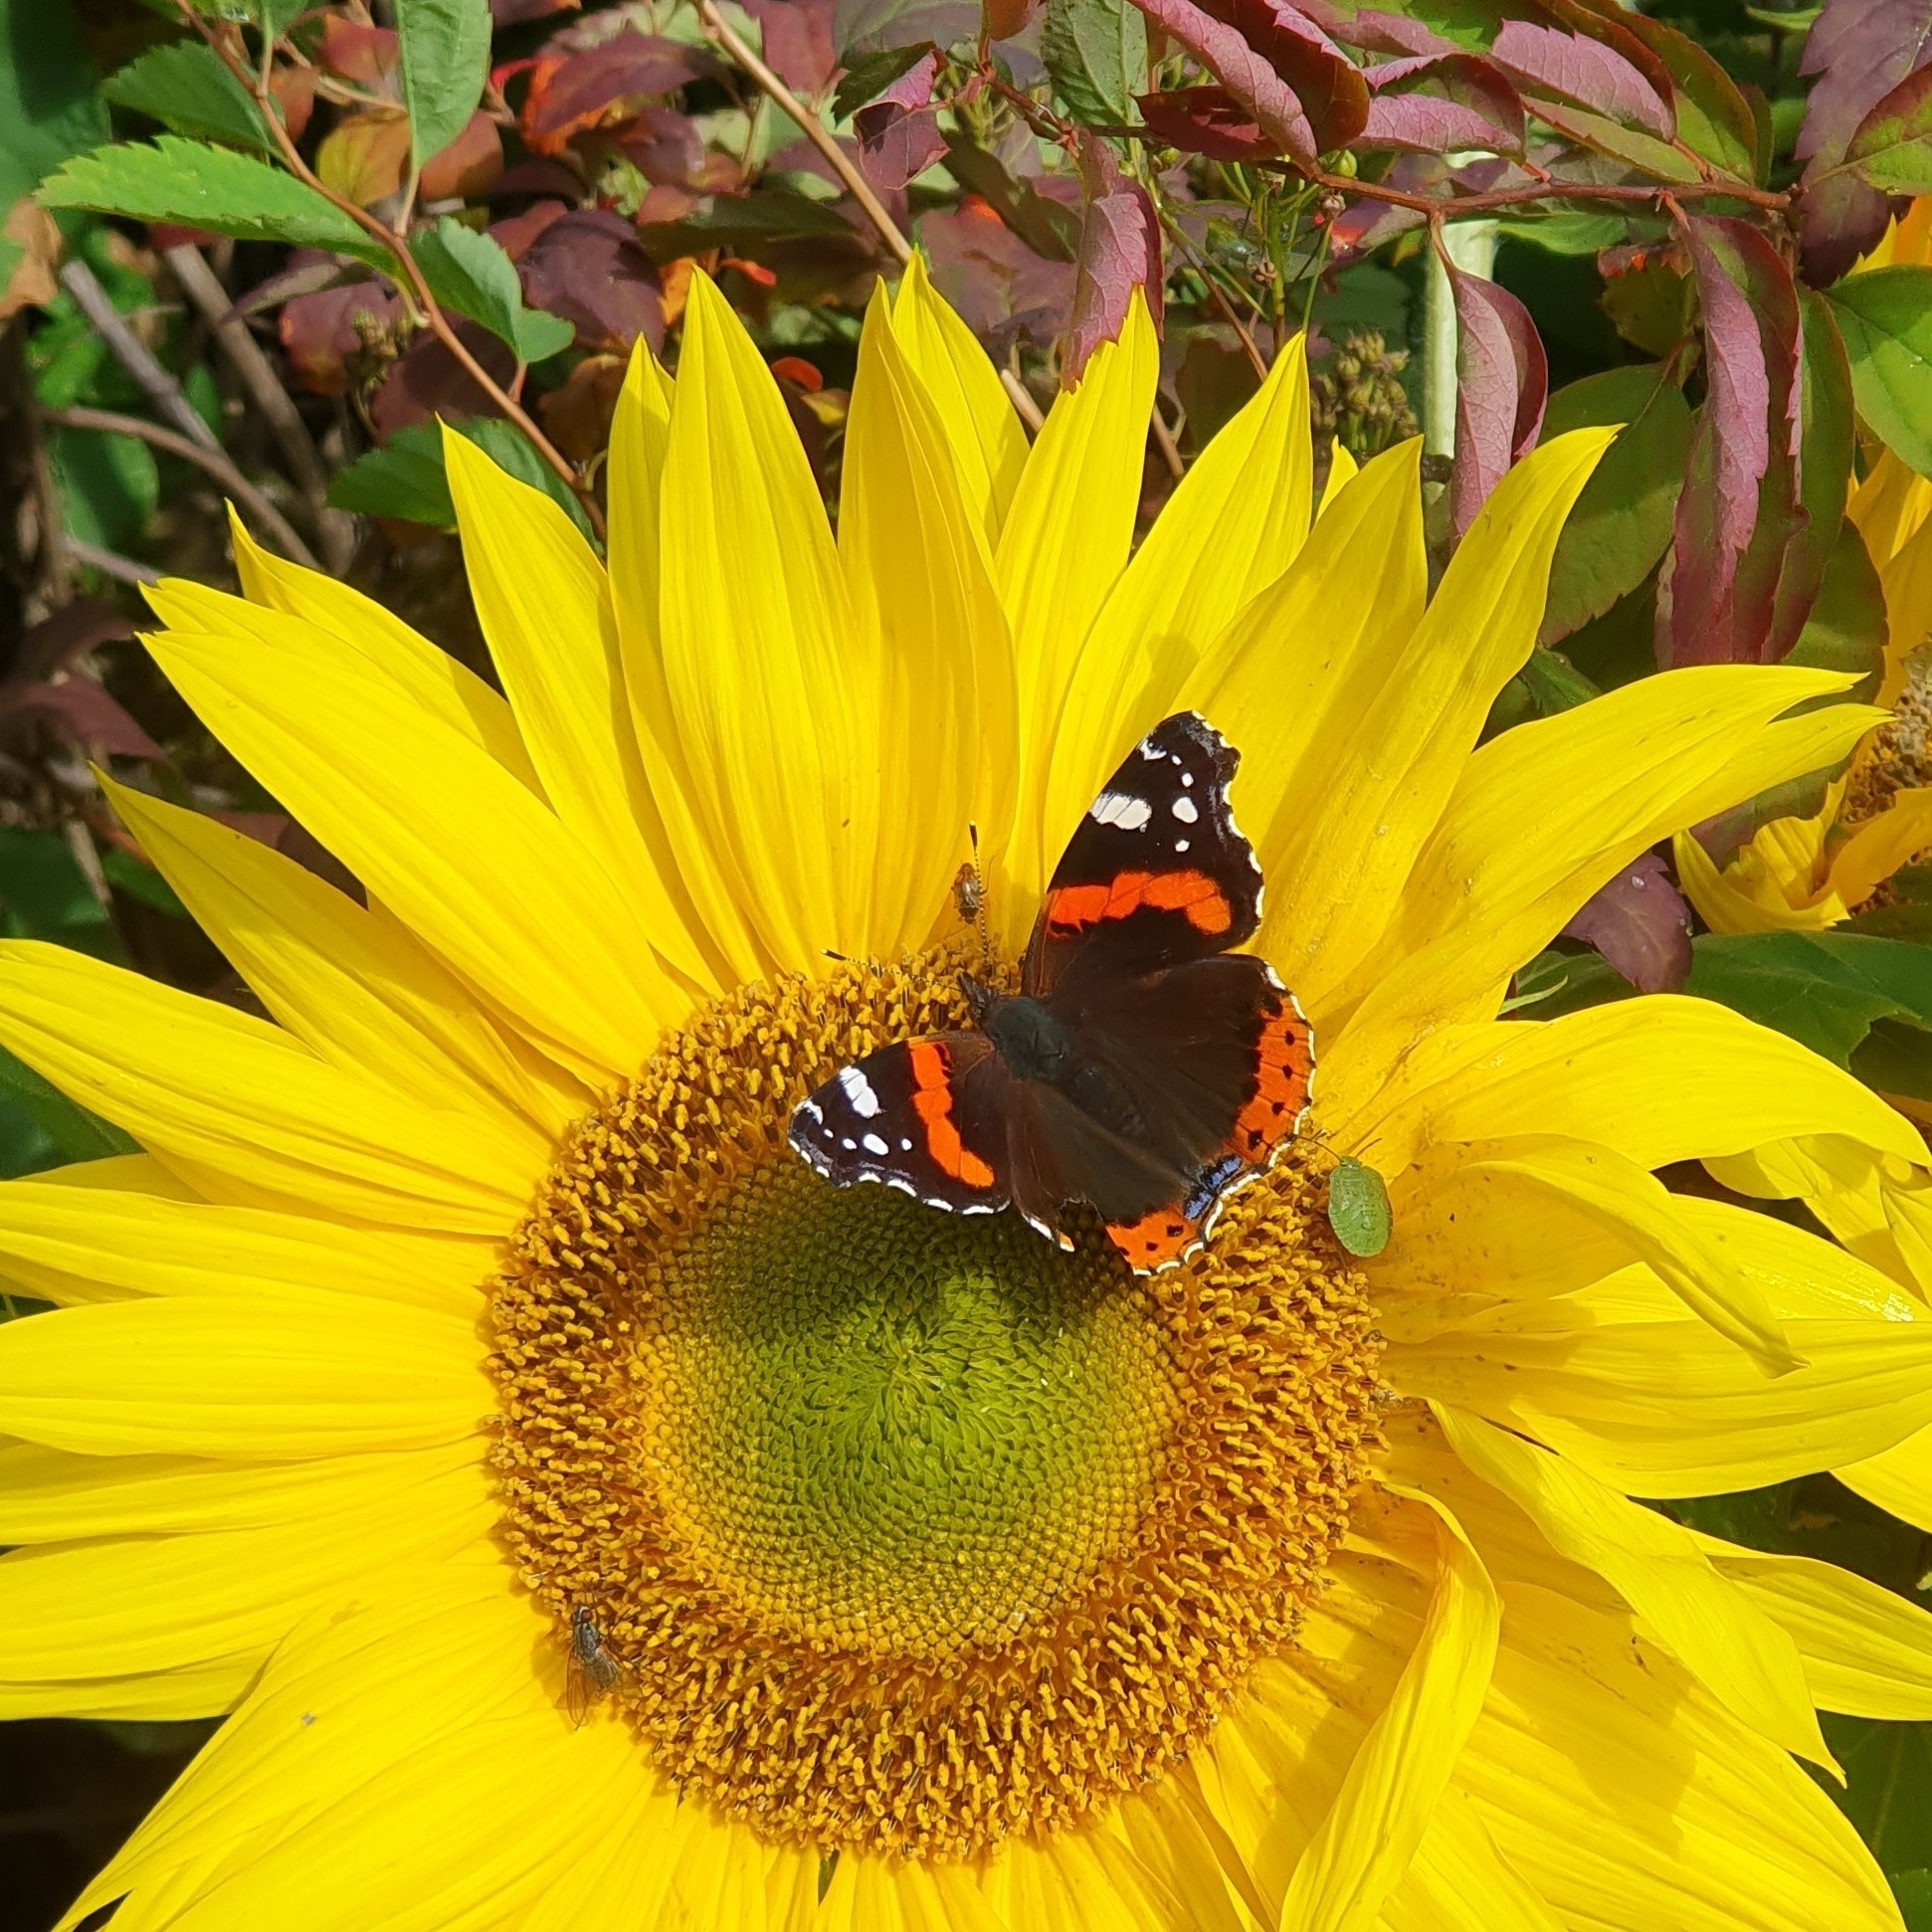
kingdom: Animalia
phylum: Arthropoda
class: Insecta
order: Lepidoptera
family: Nymphalidae
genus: Vanessa
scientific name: Vanessa atalanta
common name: Red admiral
